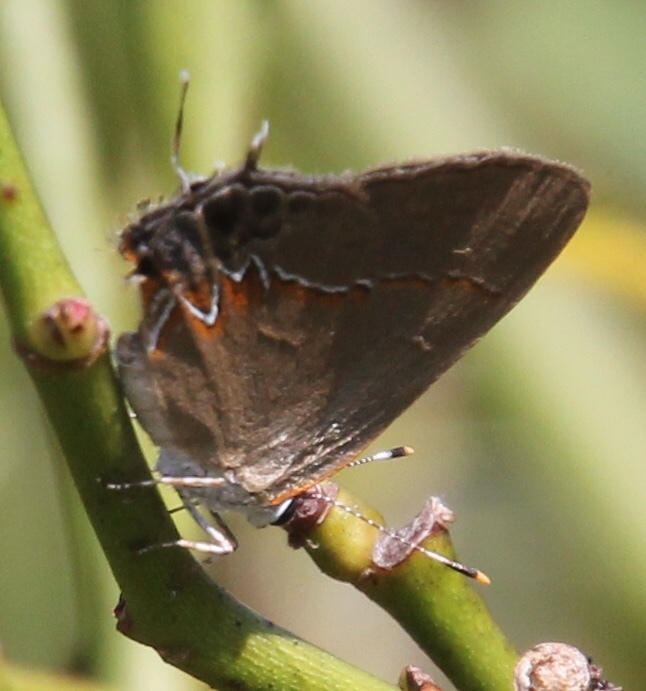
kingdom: Animalia
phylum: Arthropoda
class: Insecta
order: Lepidoptera
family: Lycaenidae
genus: Calycopis
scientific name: Calycopis cecrops
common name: Red-banded hairstreak
